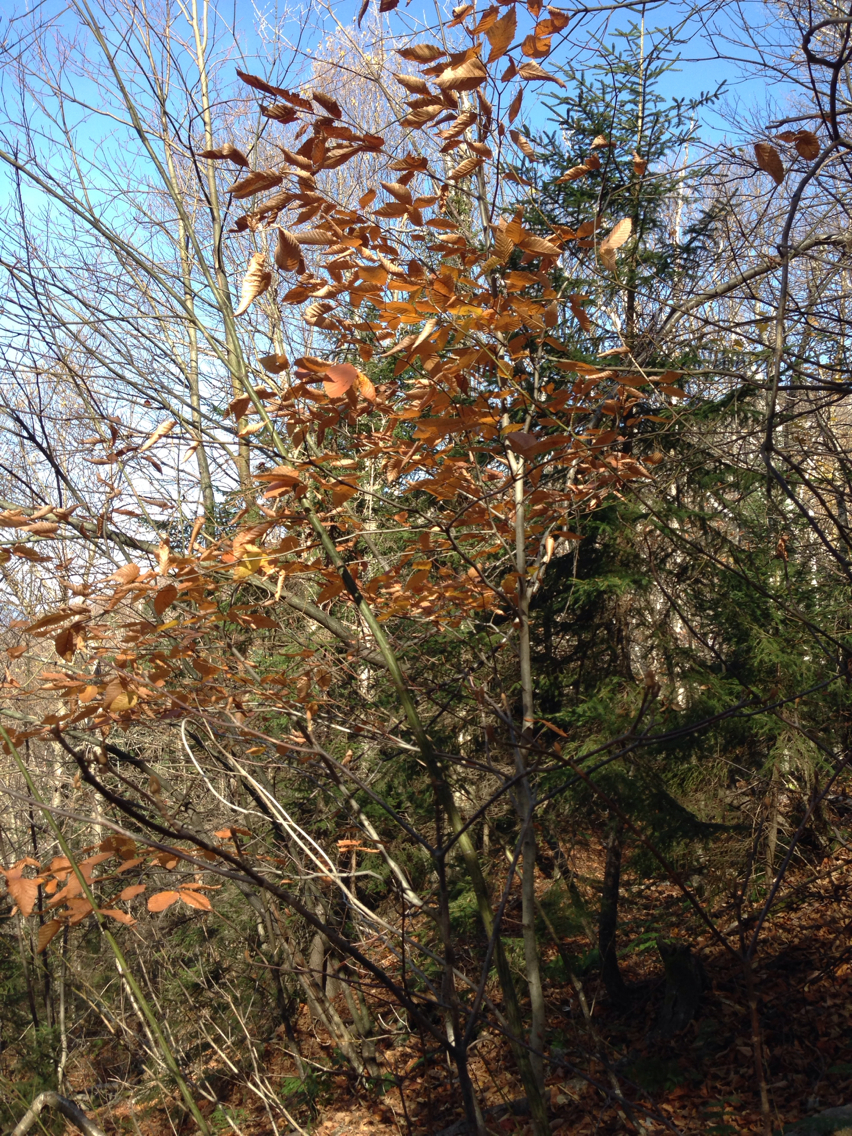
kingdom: Plantae
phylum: Tracheophyta
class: Magnoliopsida
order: Fagales
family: Fagaceae
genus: Fagus
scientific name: Fagus grandifolia
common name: American beech
